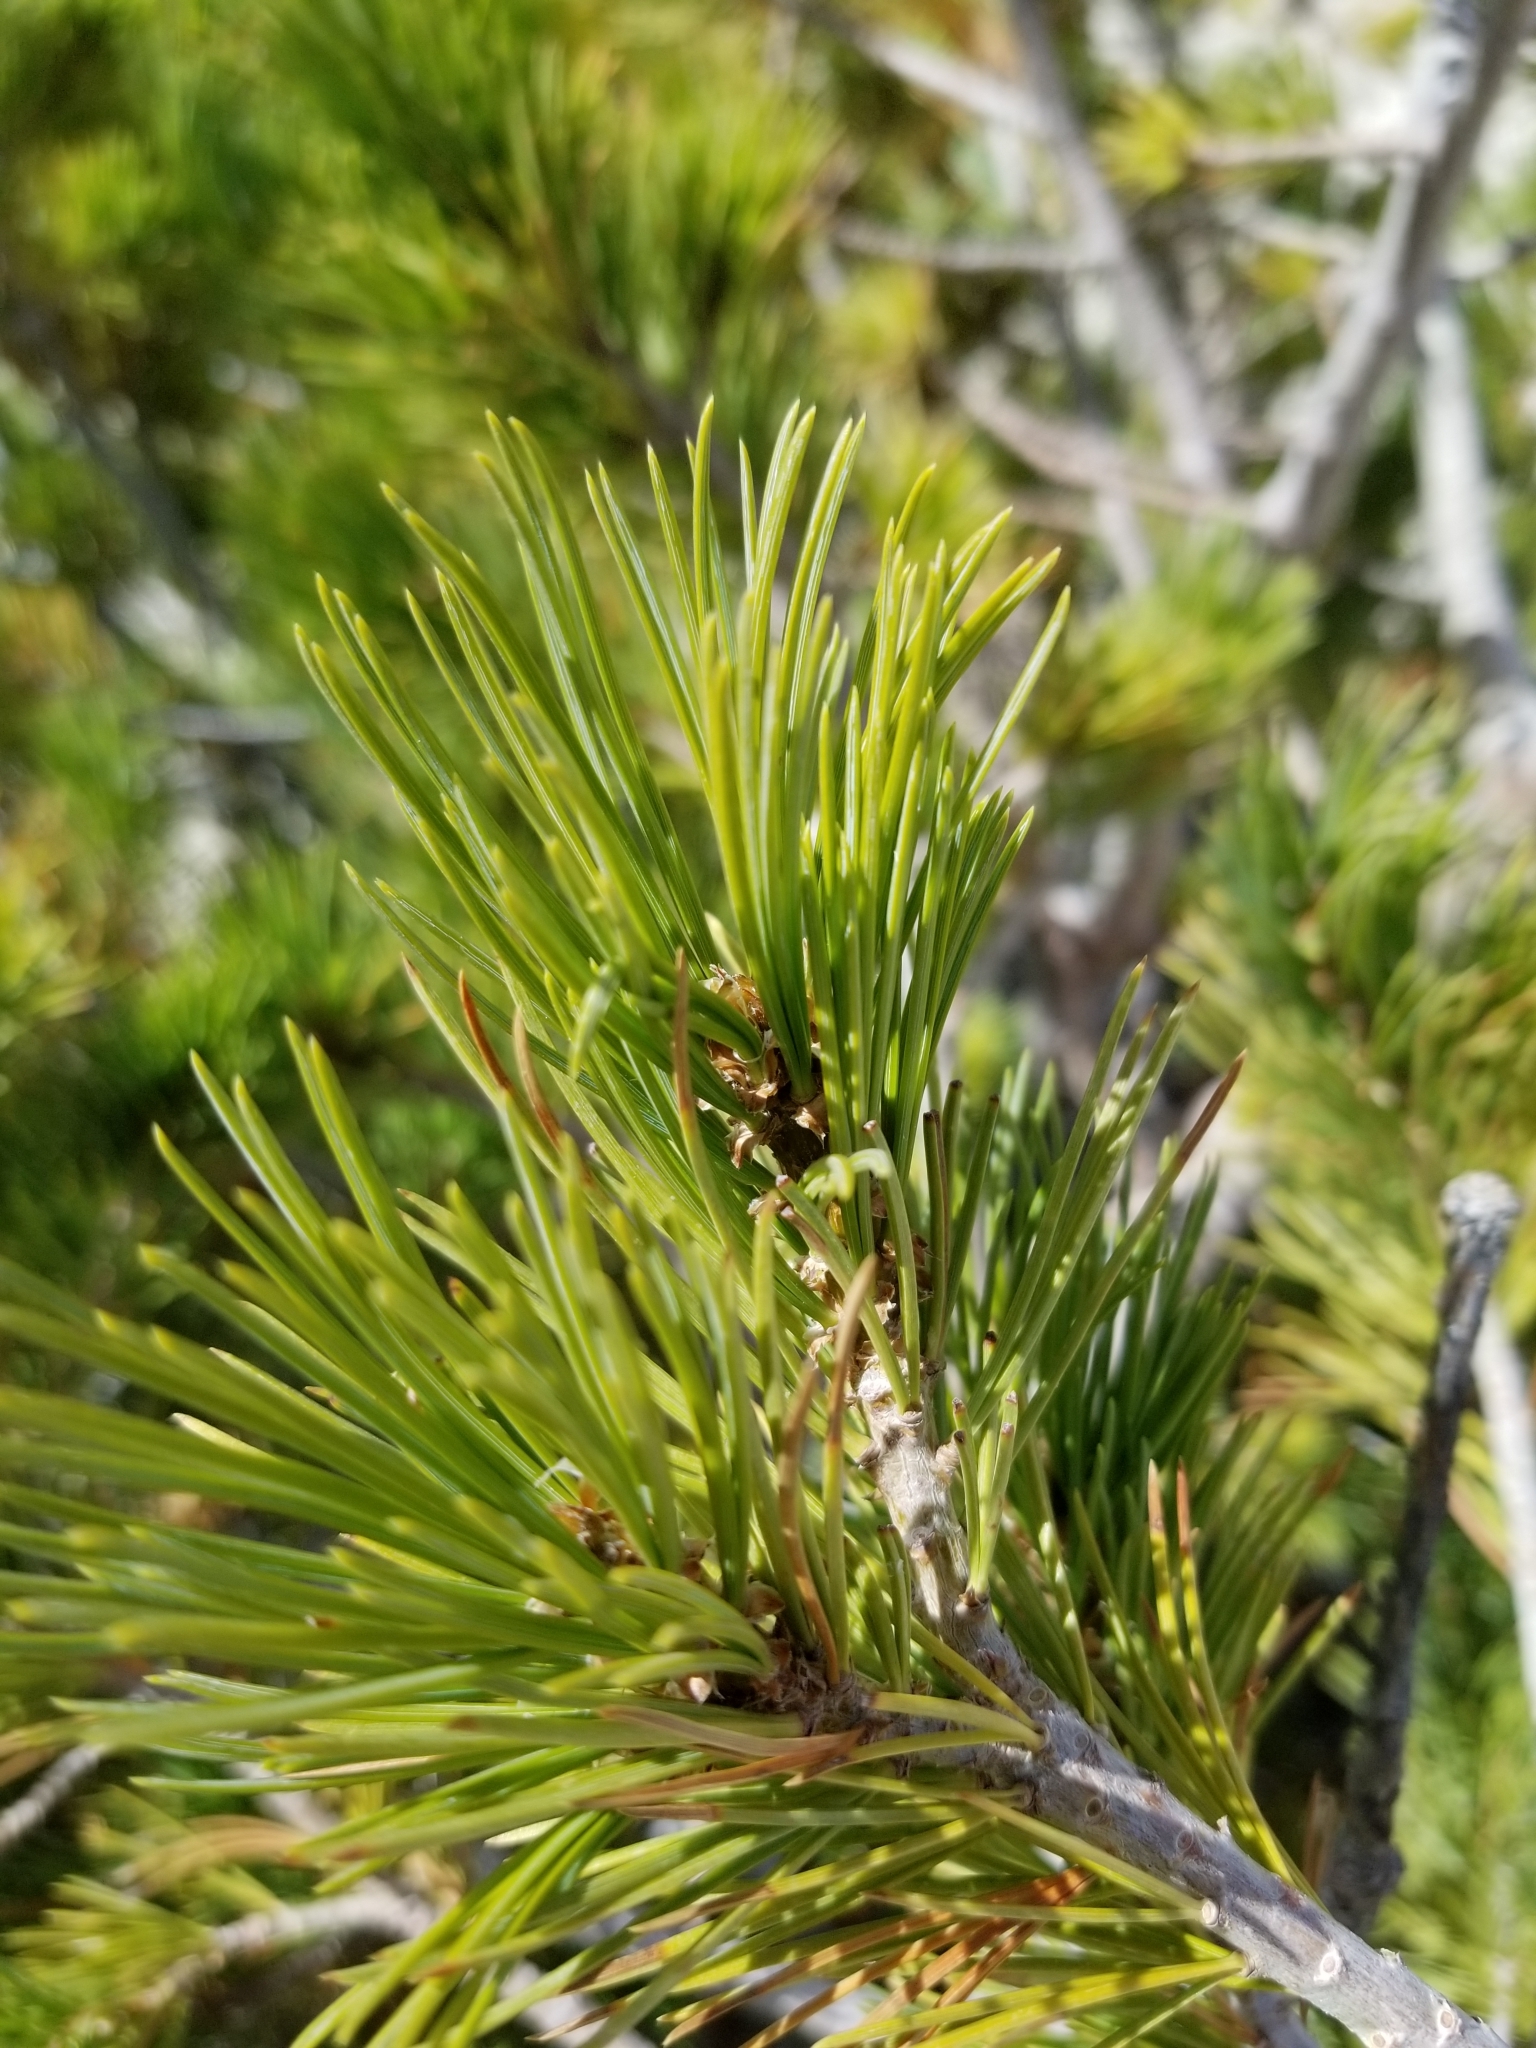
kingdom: Plantae
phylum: Tracheophyta
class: Pinopsida
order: Pinales
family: Pinaceae
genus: Pinus
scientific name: Pinus flexilis
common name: Limber pine
